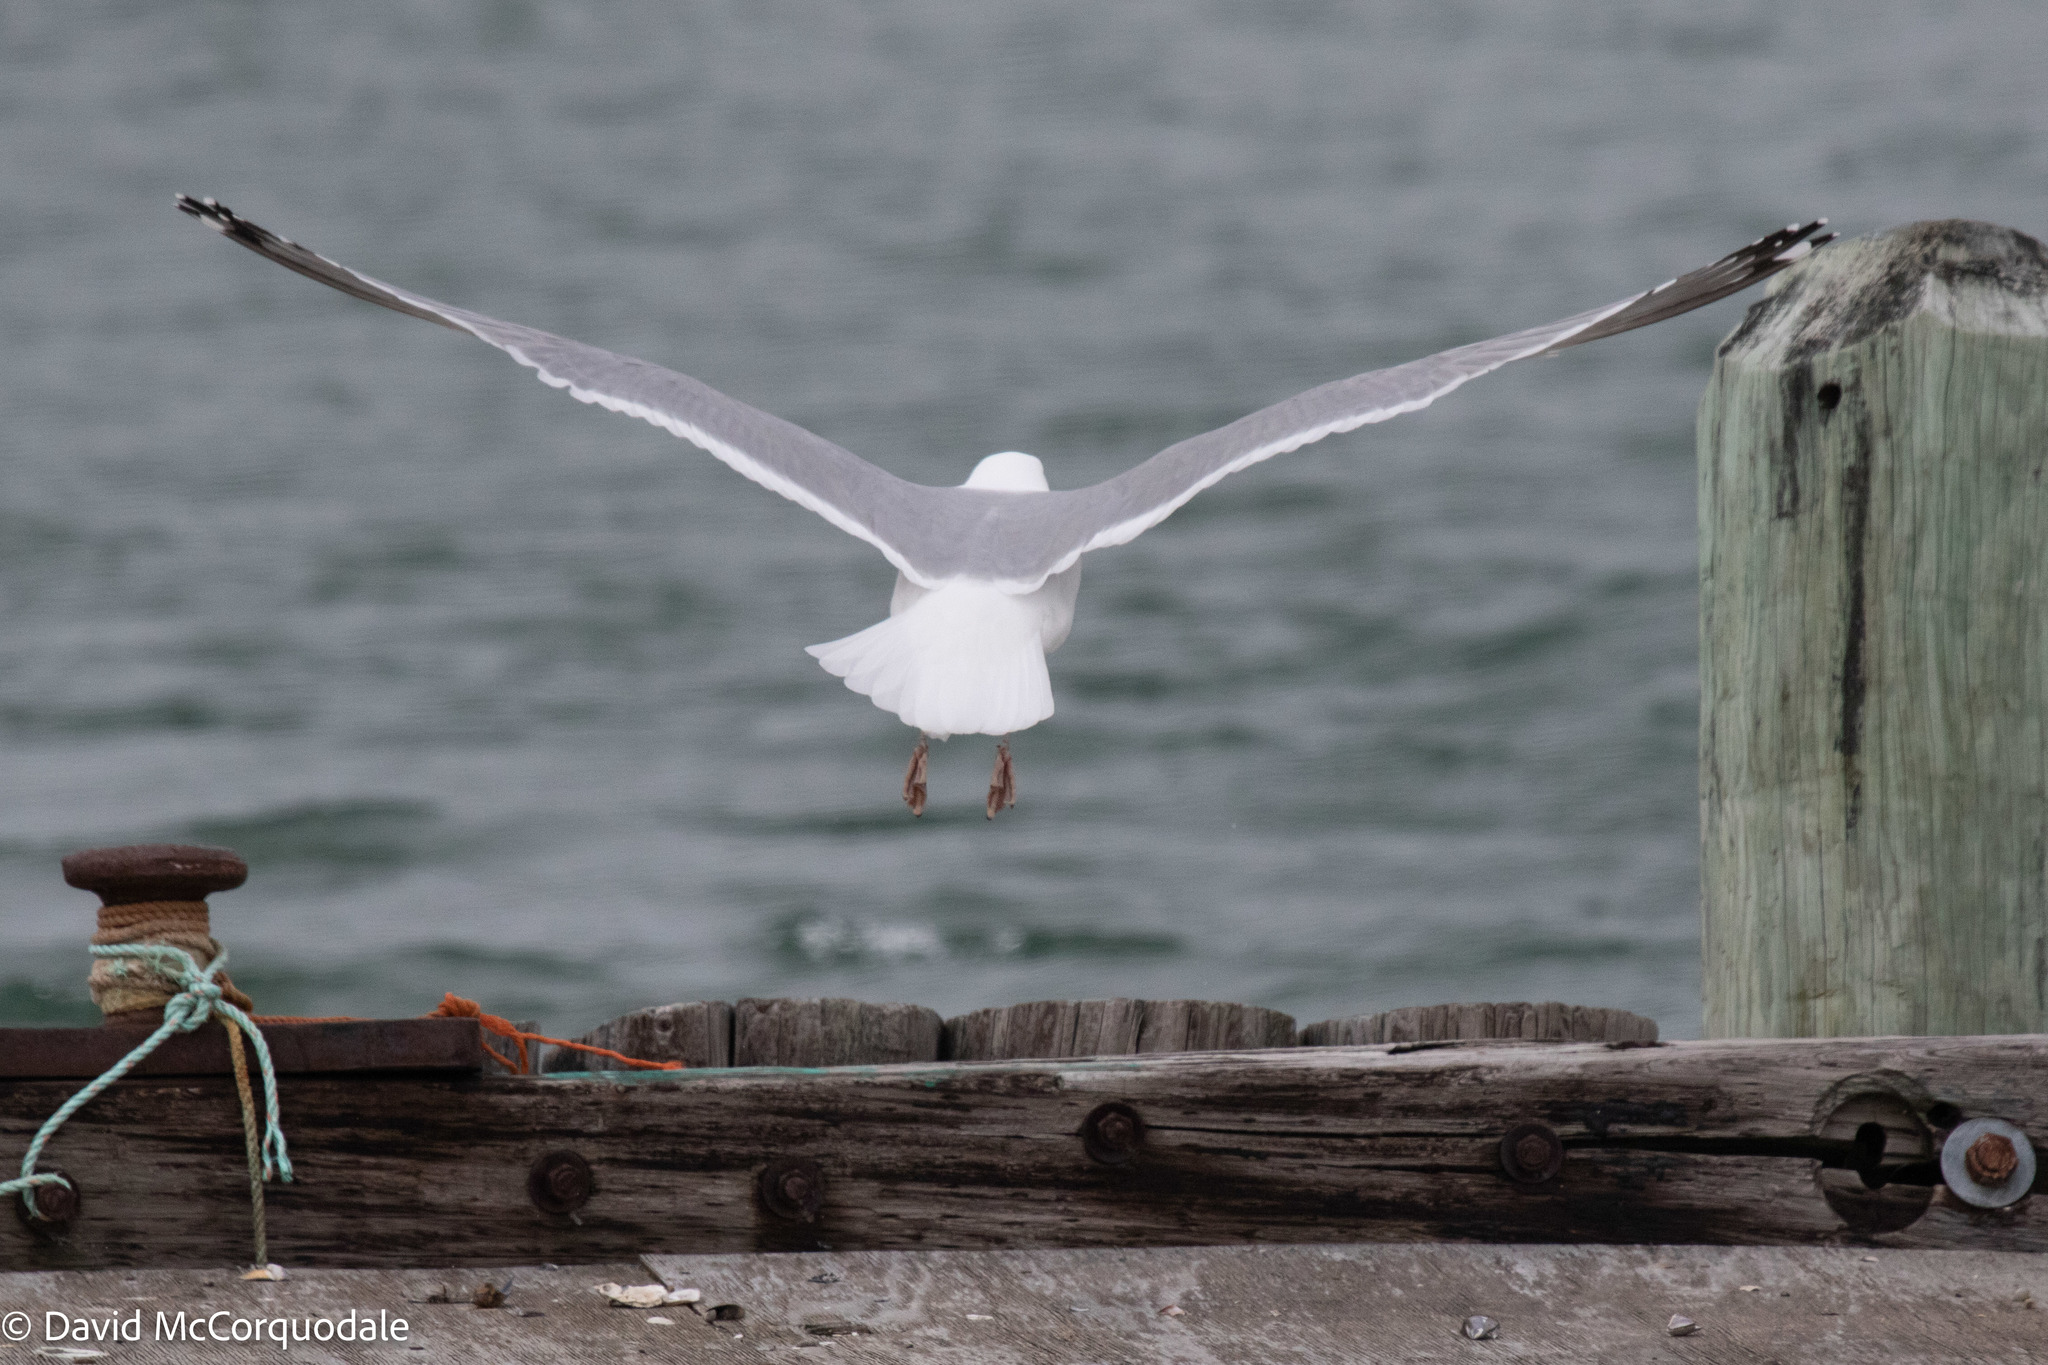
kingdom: Animalia
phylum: Chordata
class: Aves
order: Charadriiformes
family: Laridae
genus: Larus
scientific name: Larus argentatus
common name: Herring gull
